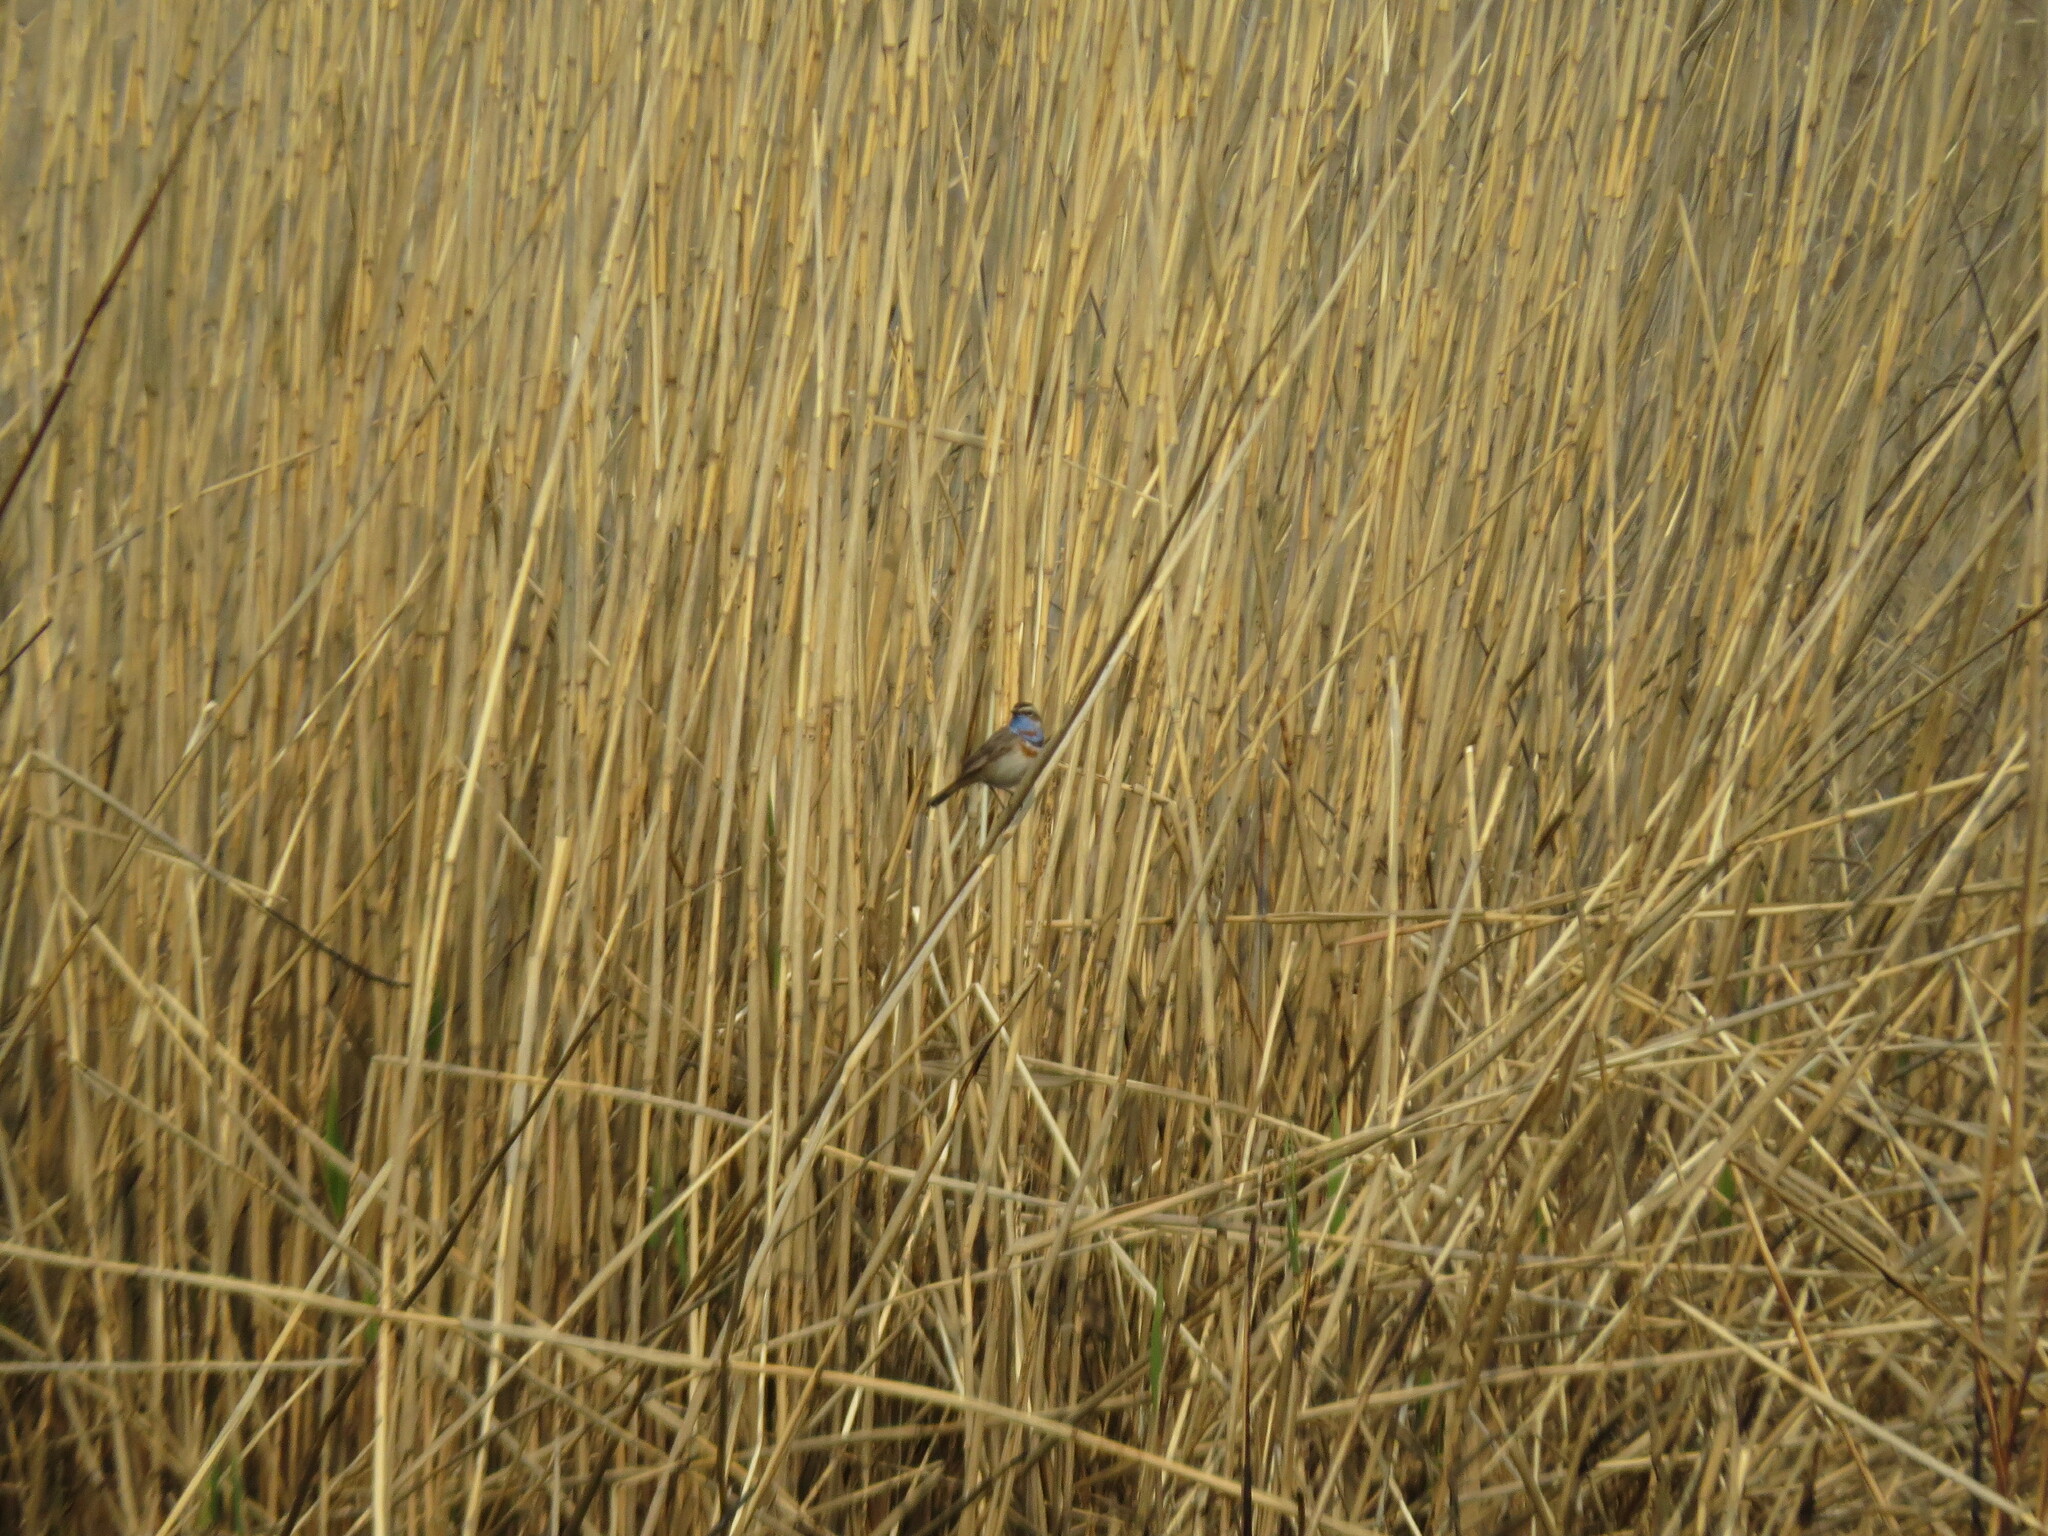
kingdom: Animalia
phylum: Chordata
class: Aves
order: Passeriformes
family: Muscicapidae
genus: Luscinia
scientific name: Luscinia svecica
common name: Bluethroat
